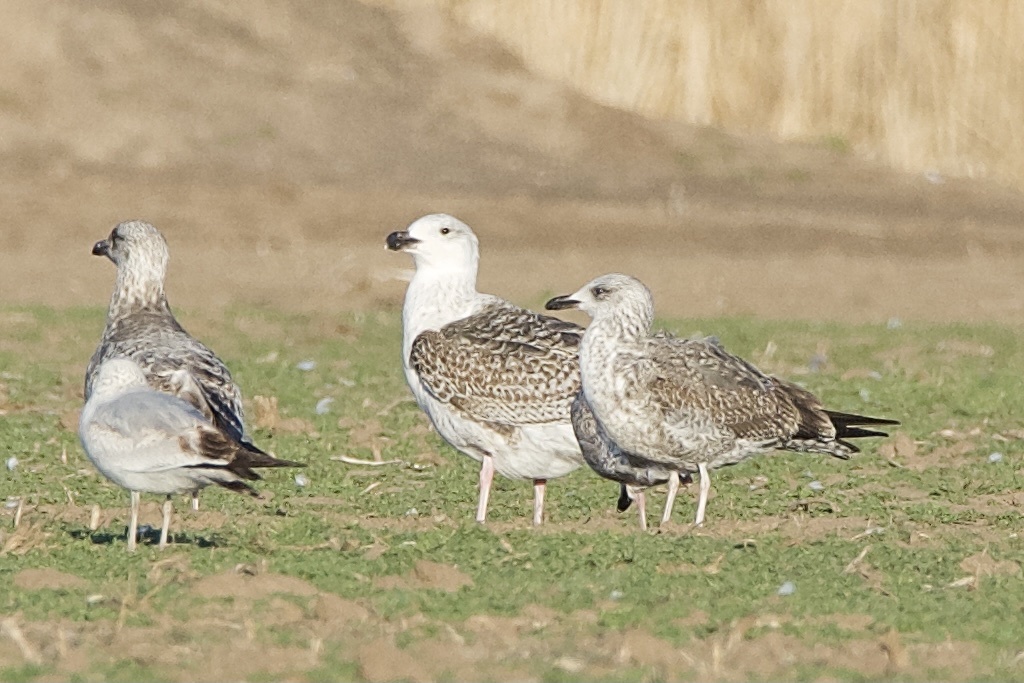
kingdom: Animalia
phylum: Chordata
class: Aves
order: Charadriiformes
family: Laridae
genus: Larus
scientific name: Larus marinus
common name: Great black-backed gull
